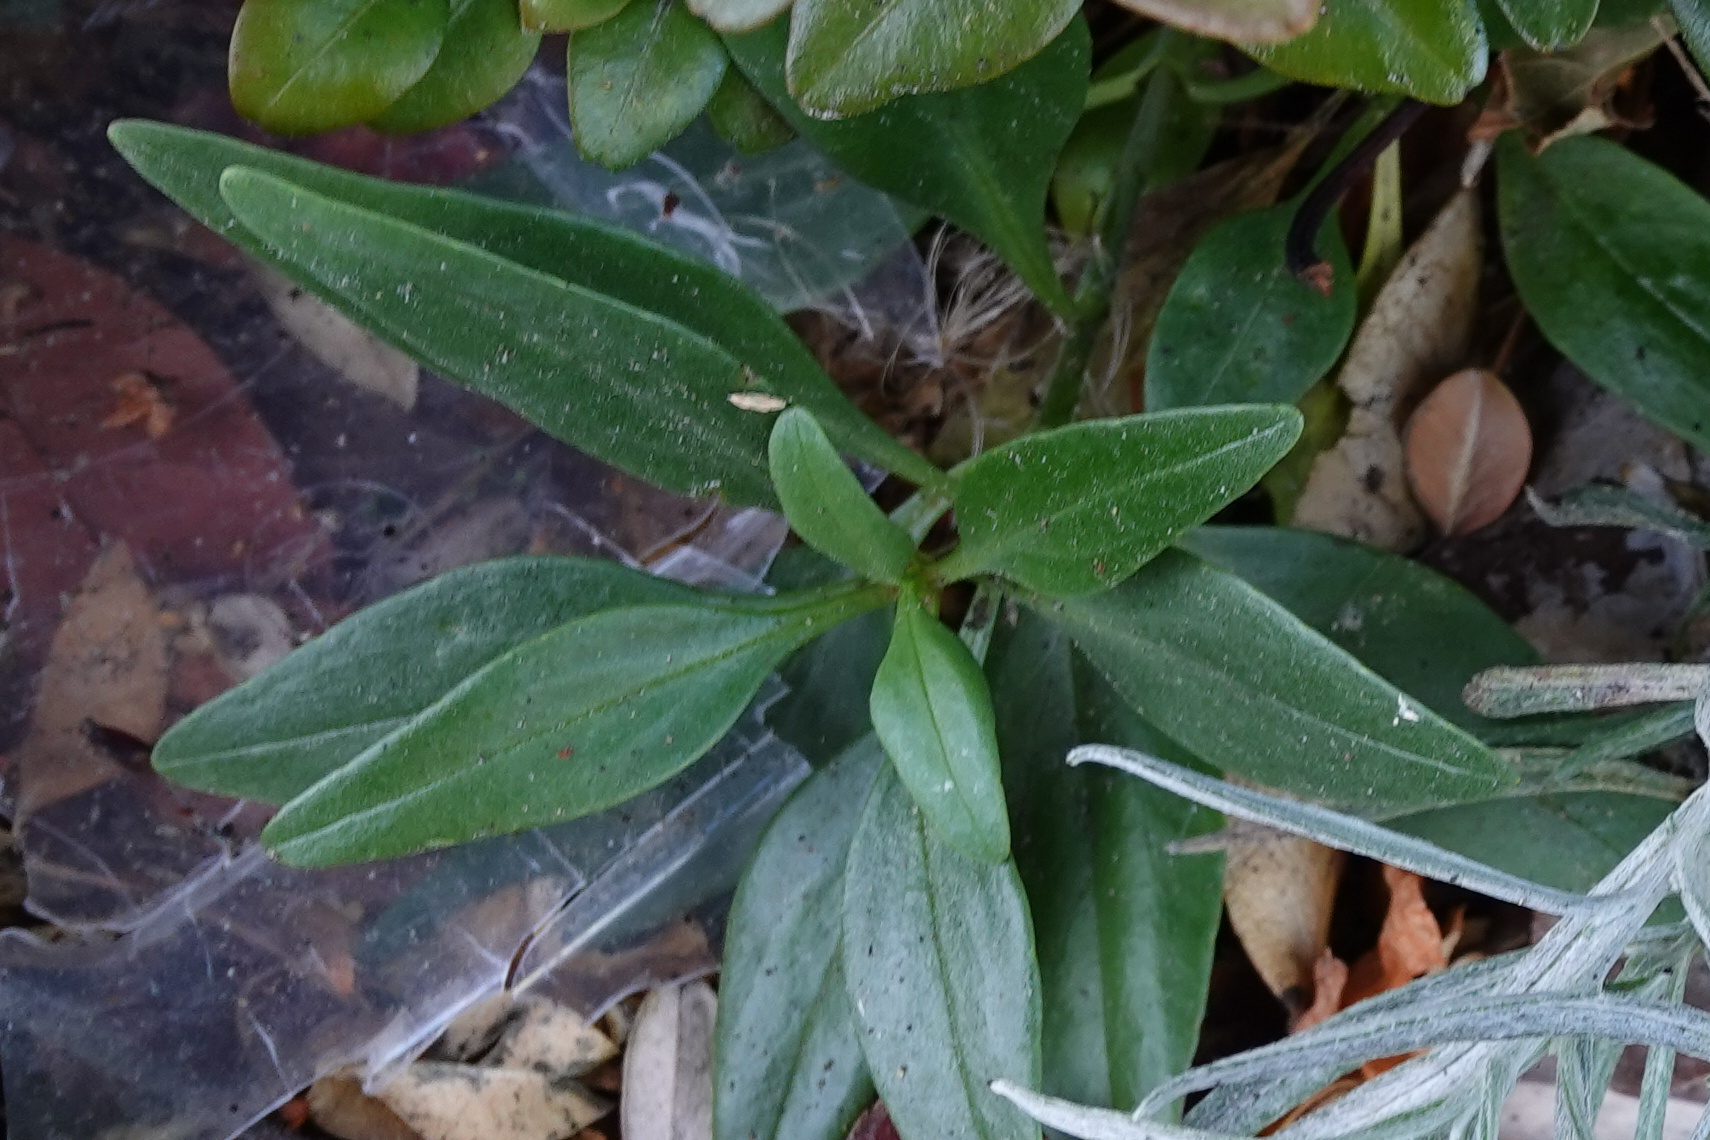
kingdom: Plantae
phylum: Tracheophyta
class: Magnoliopsida
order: Dipsacales
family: Caprifoliaceae
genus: Centranthus
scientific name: Centranthus ruber
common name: Red valerian
